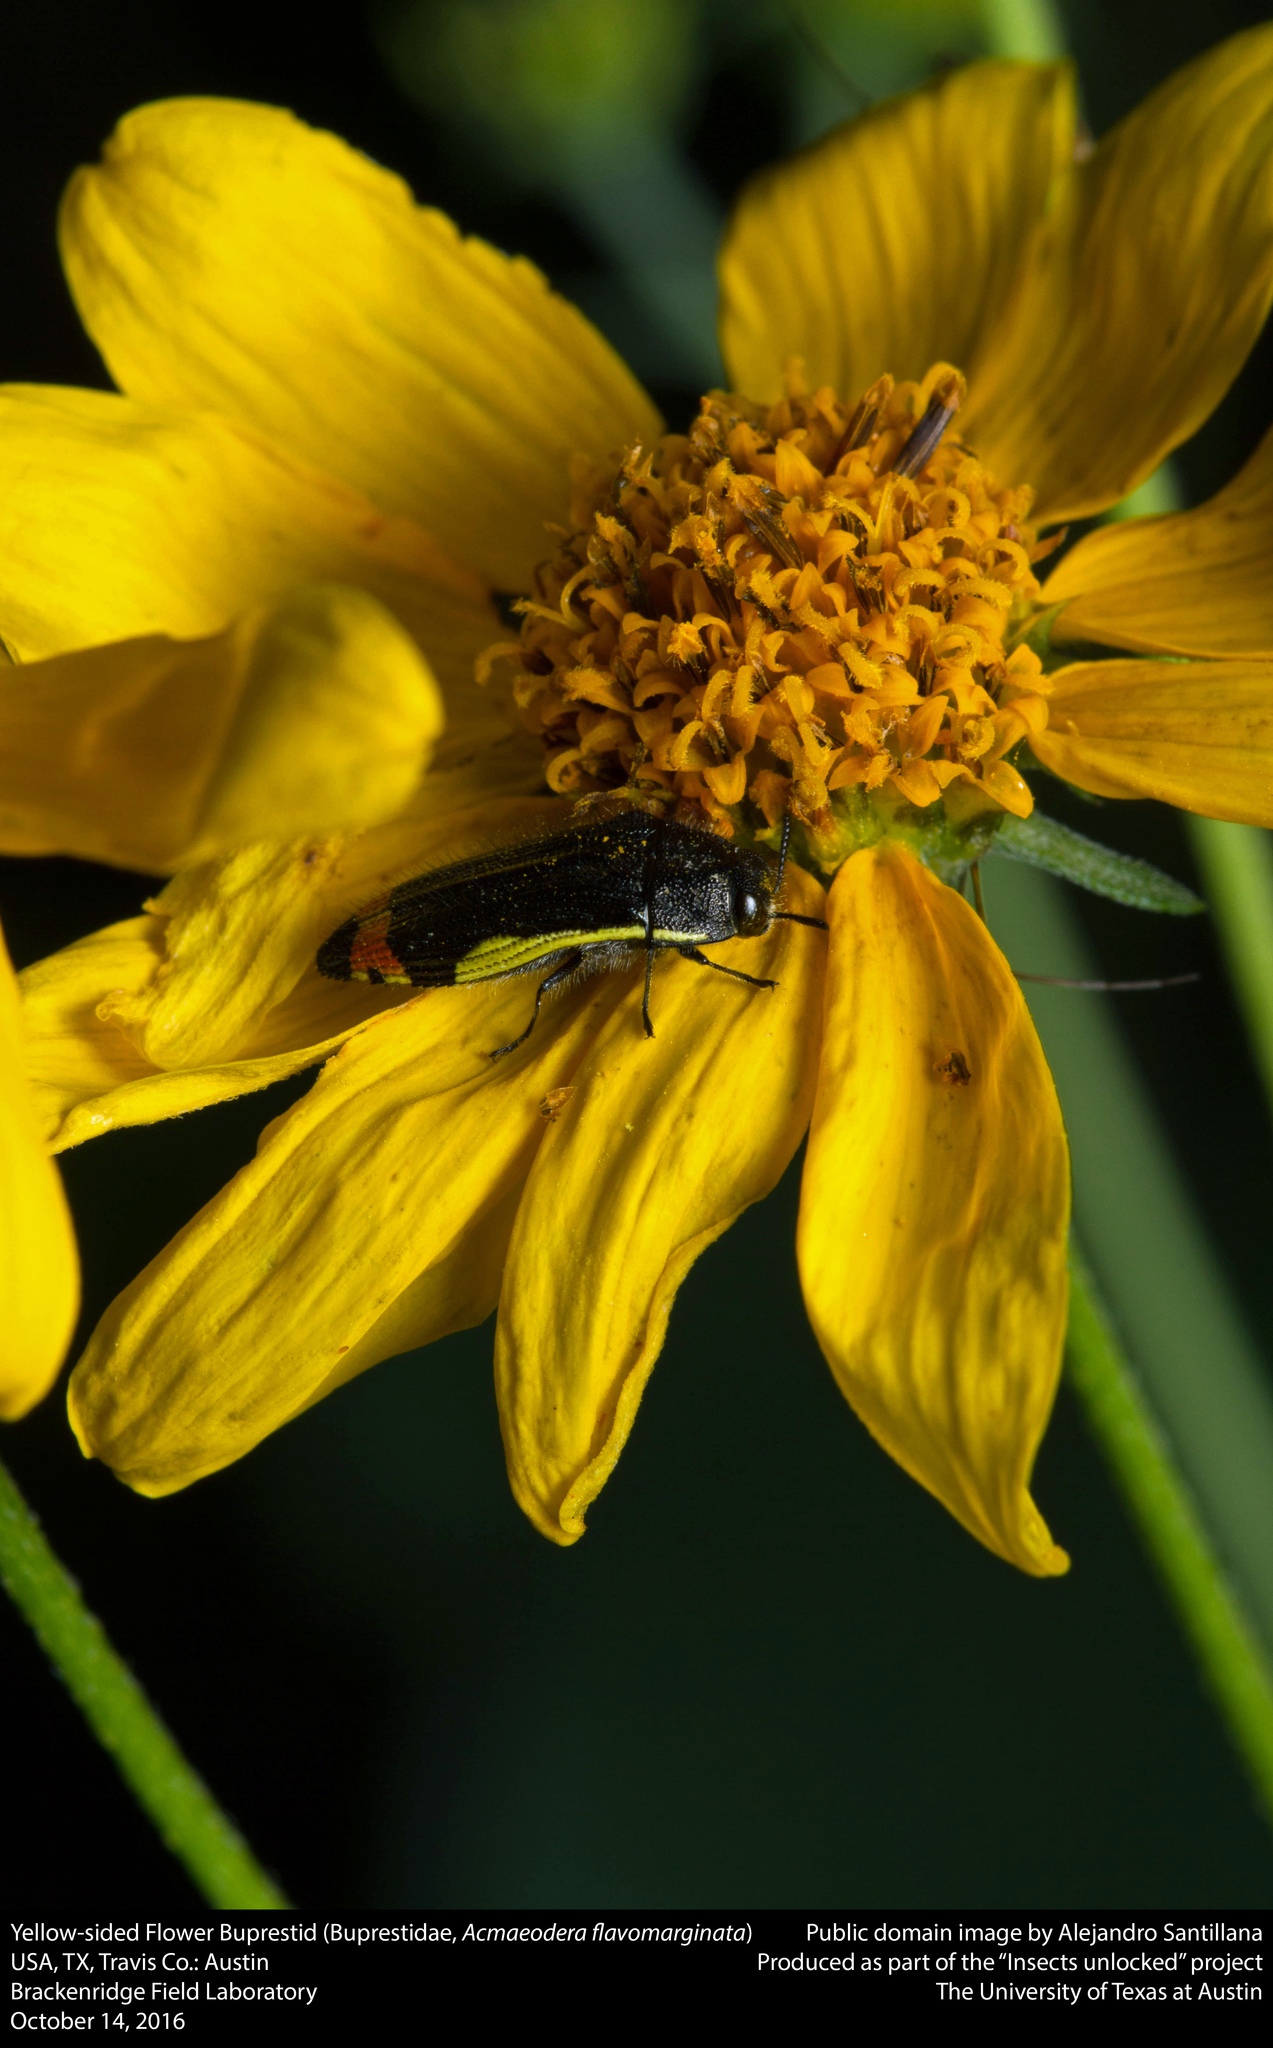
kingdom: Animalia
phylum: Arthropoda
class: Insecta
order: Coleoptera
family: Buprestidae
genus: Acmaeodera
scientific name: Acmaeodera flavomarginata
